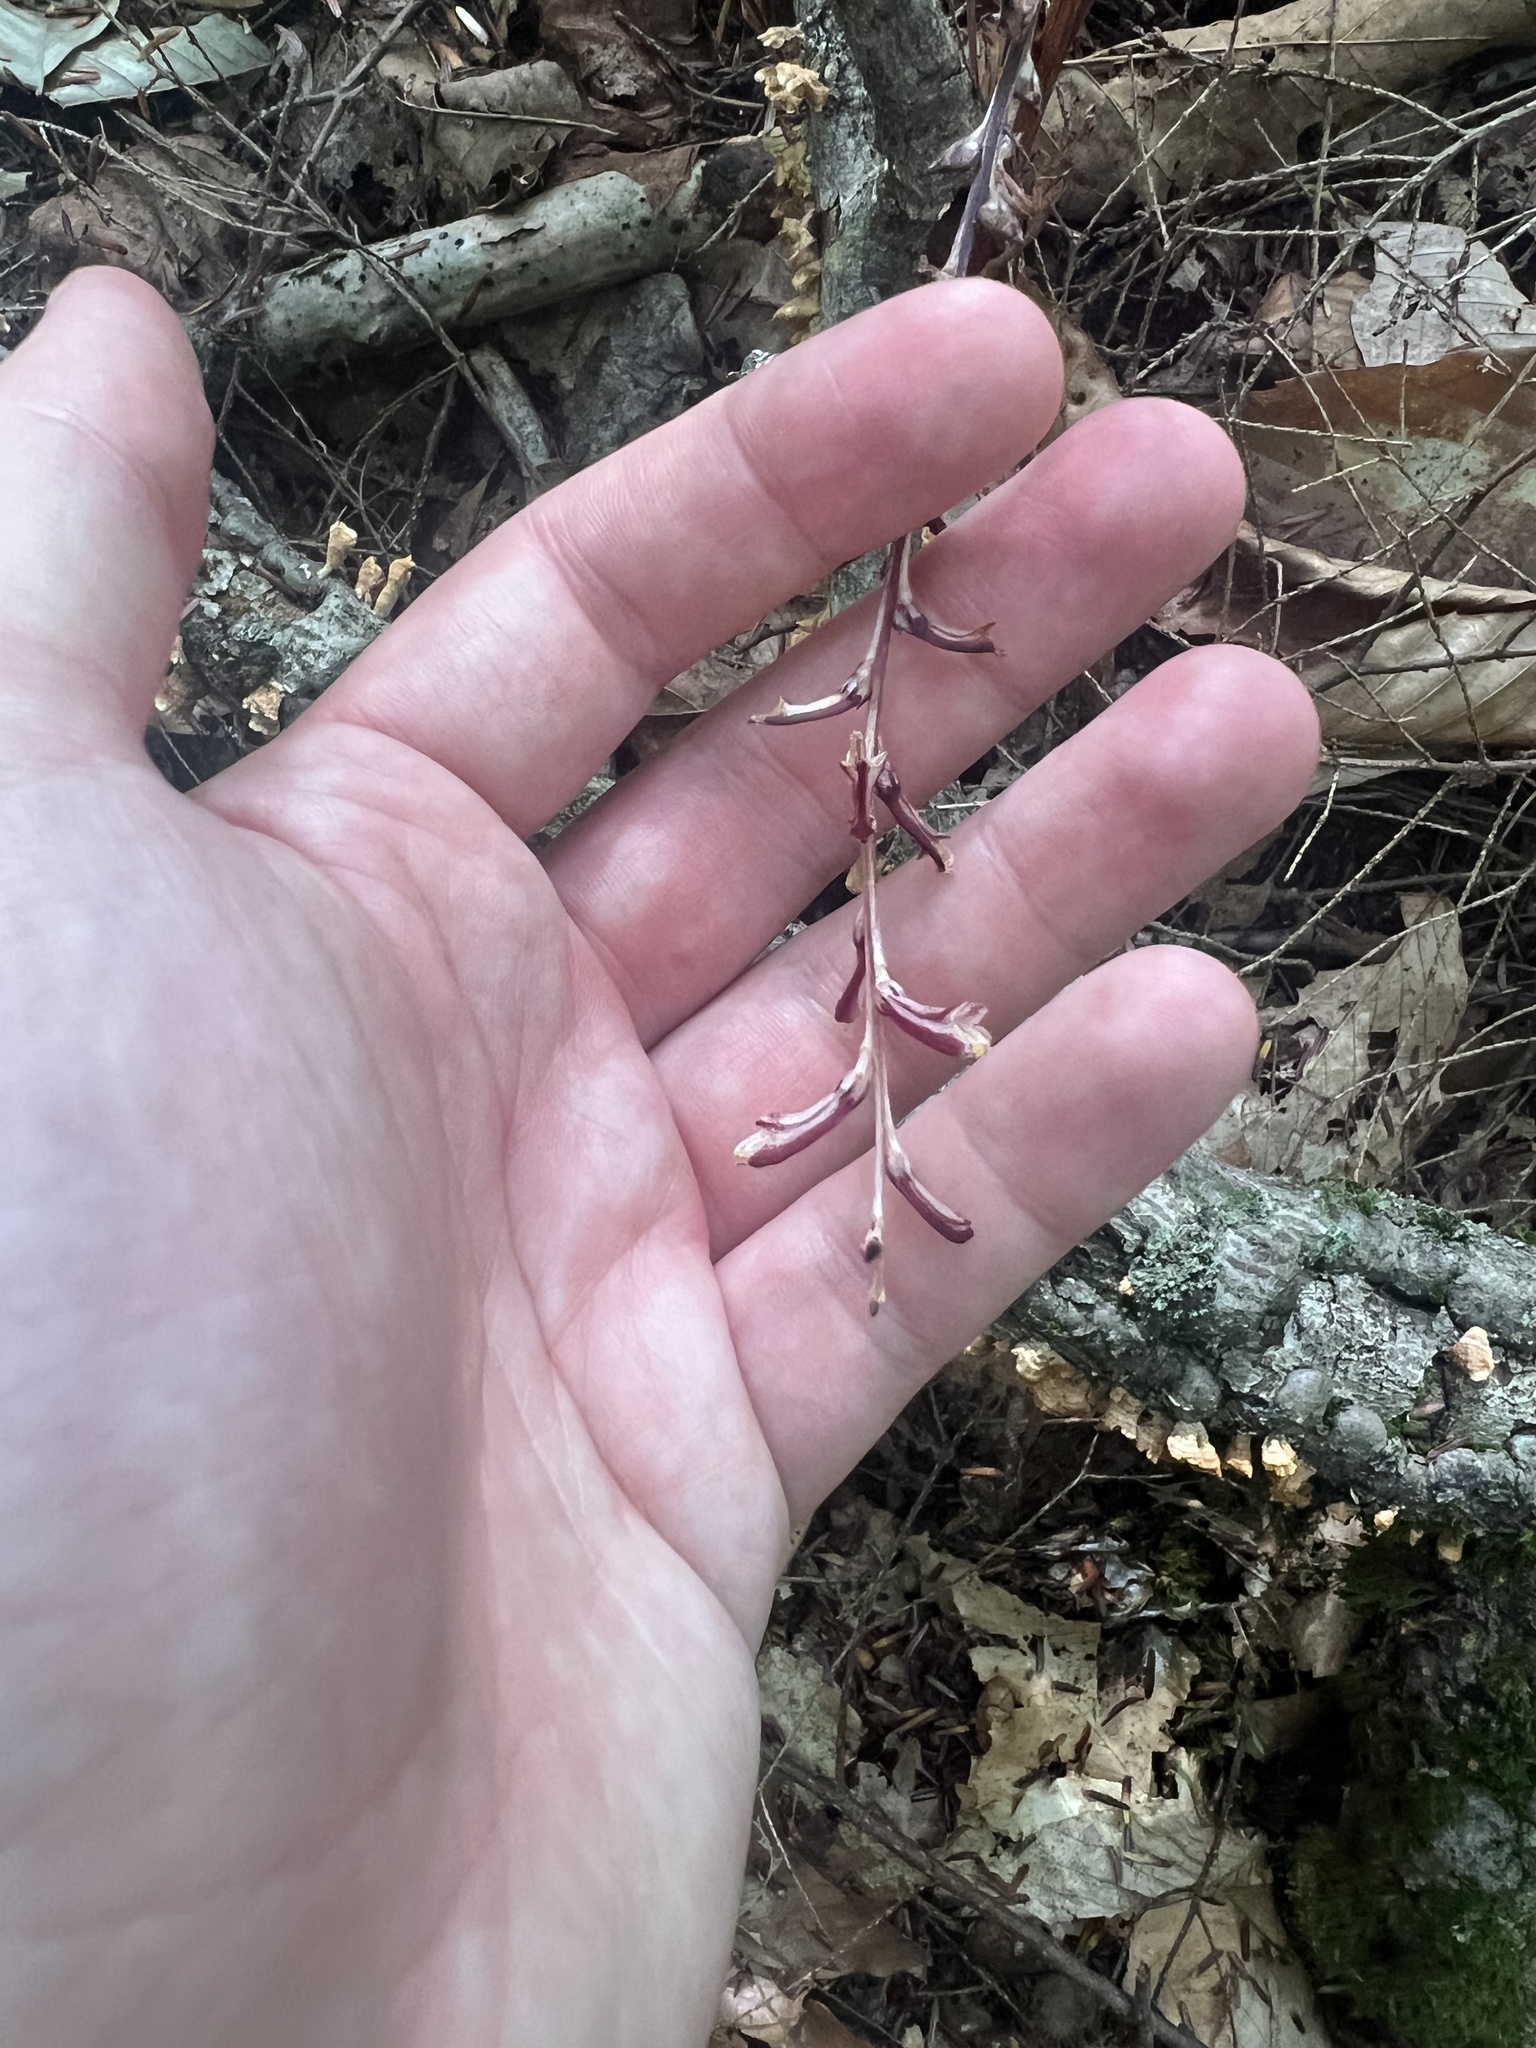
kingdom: Plantae
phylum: Tracheophyta
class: Magnoliopsida
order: Lamiales
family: Orobanchaceae
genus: Epifagus
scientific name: Epifagus virginiana
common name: Beechdrops
